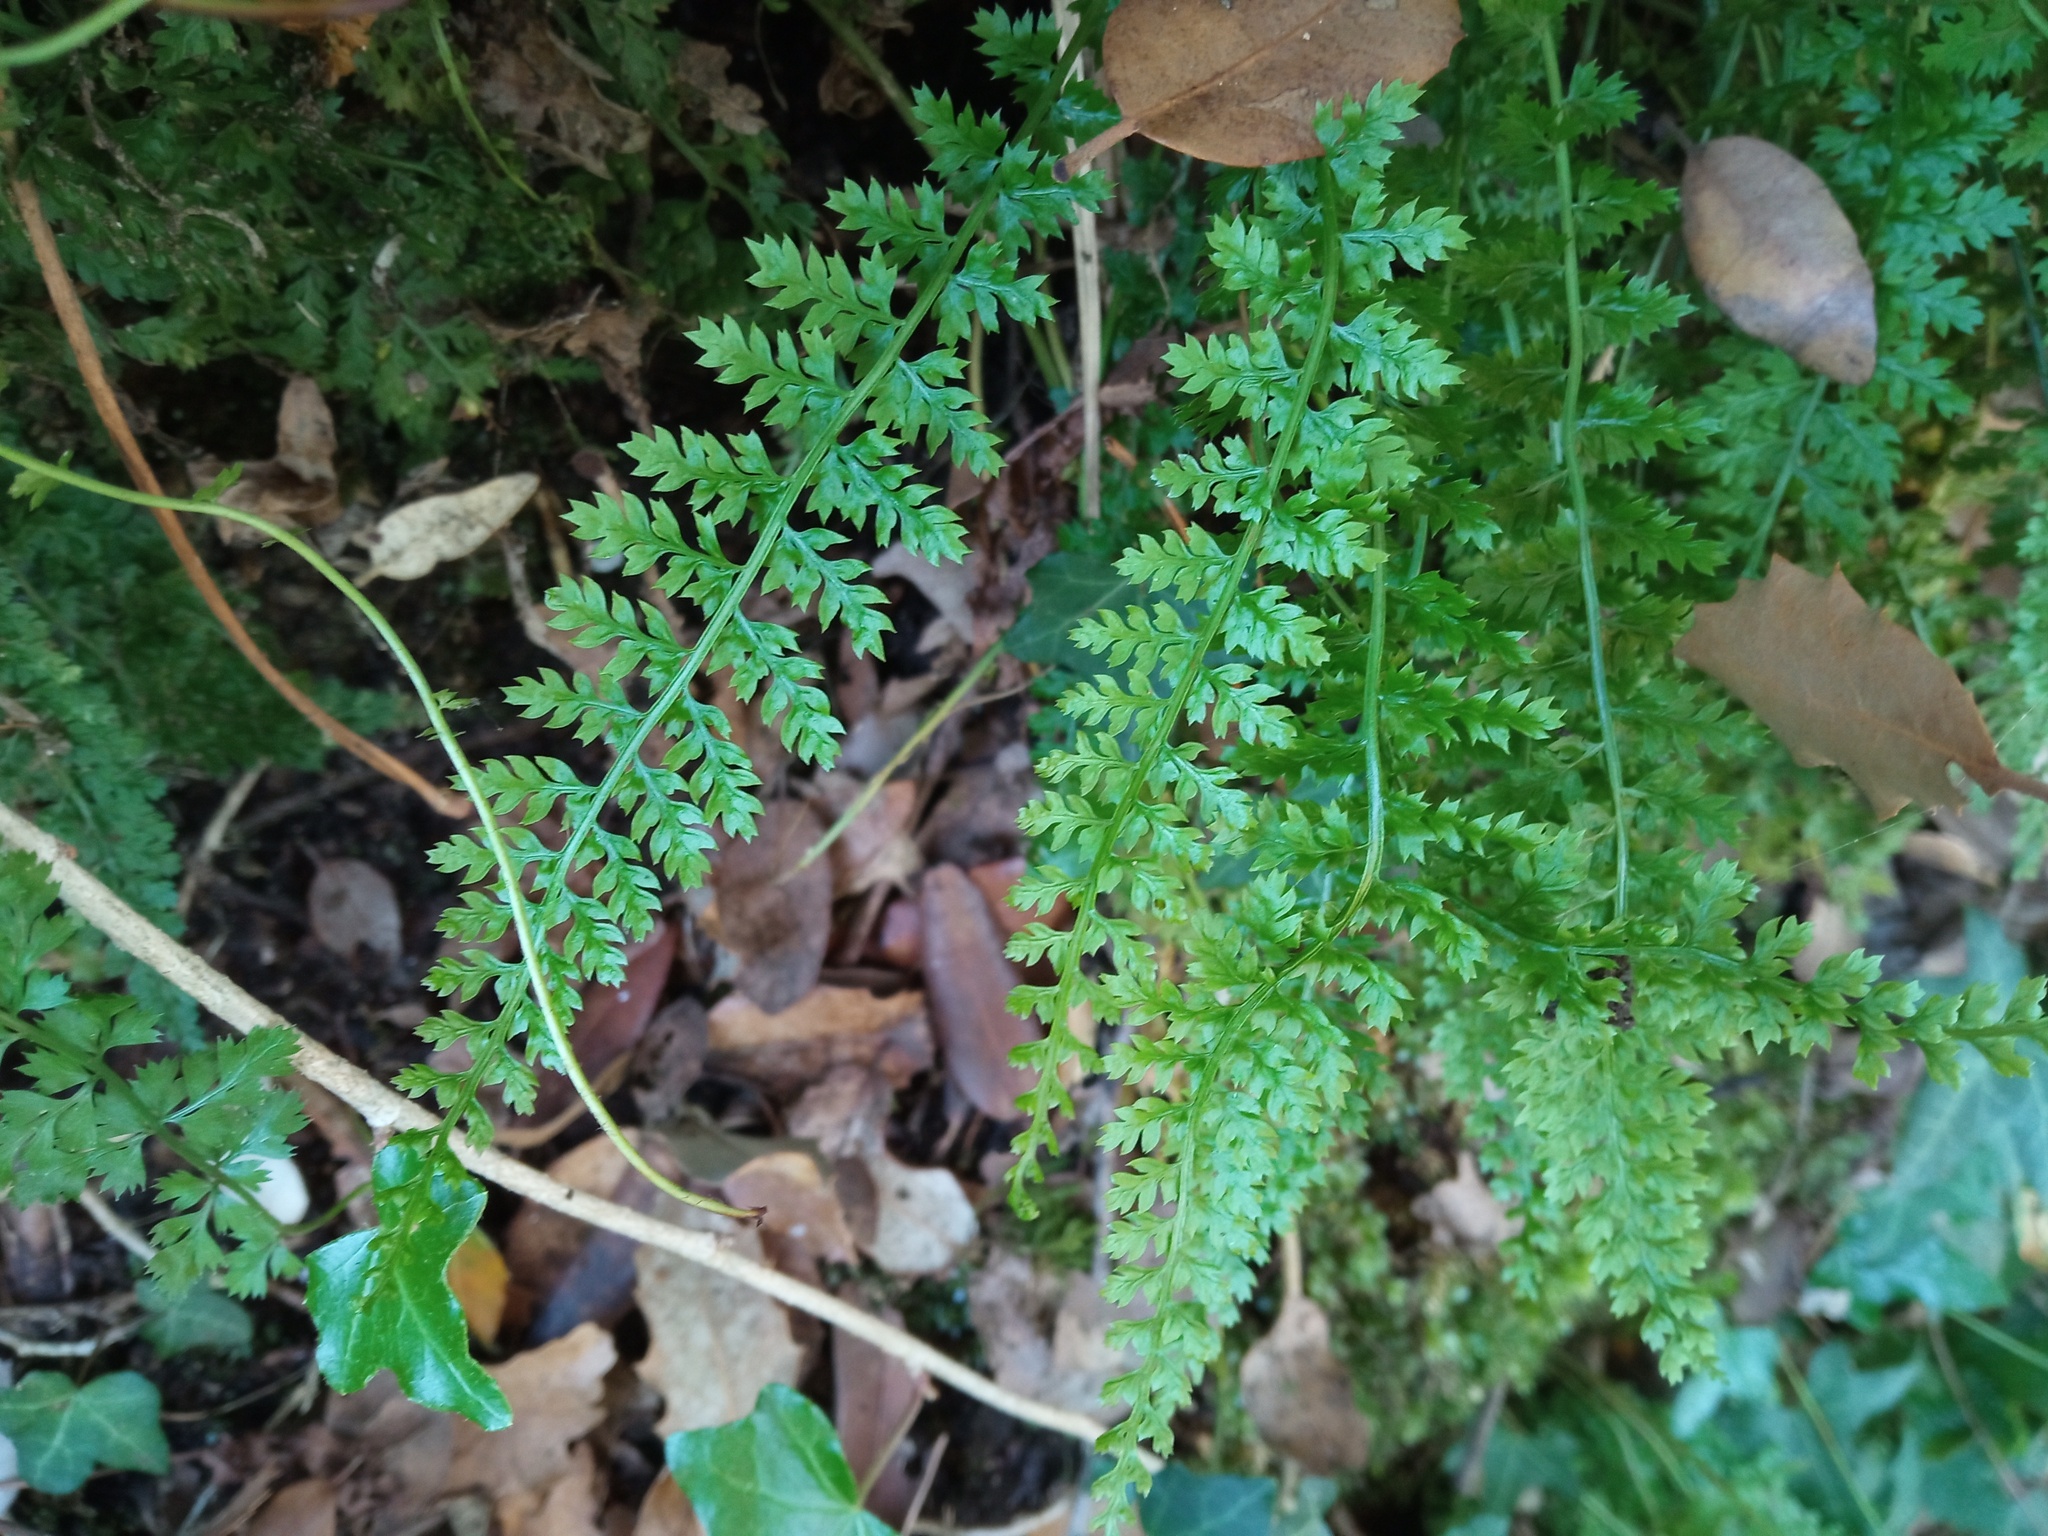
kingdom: Plantae
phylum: Tracheophyta
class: Polypodiopsida
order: Polypodiales
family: Aspleniaceae
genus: Asplenium
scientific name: Asplenium fontanum
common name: Fountain spleenwort
